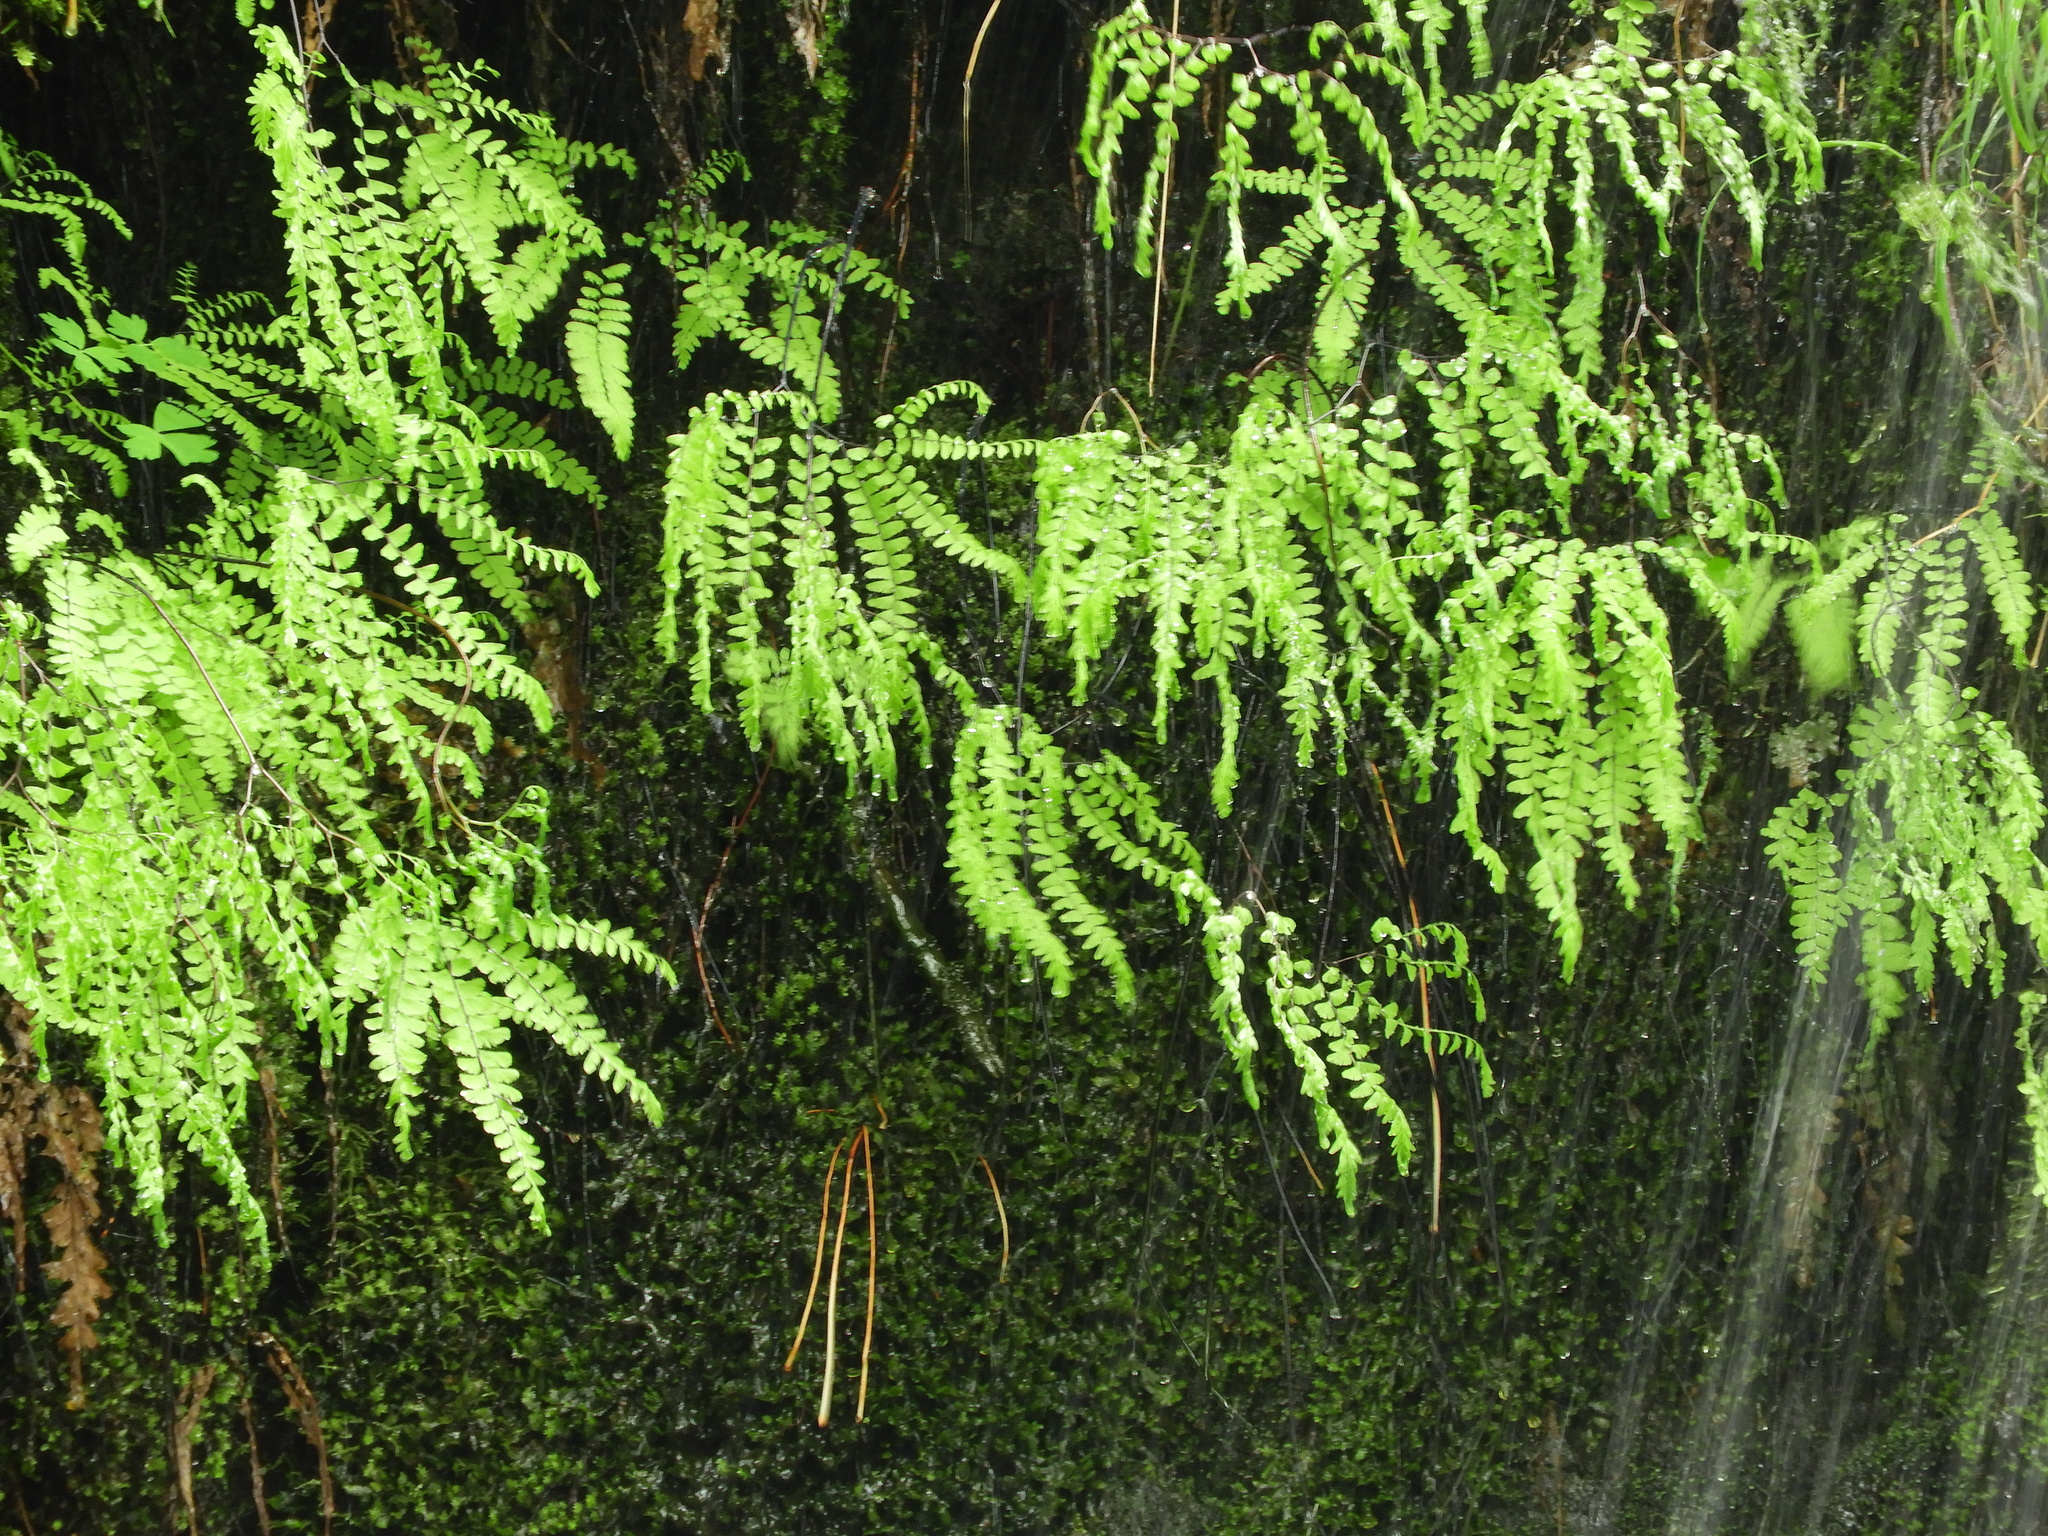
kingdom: Plantae
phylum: Tracheophyta
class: Polypodiopsida
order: Polypodiales
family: Pteridaceae
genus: Adiantum
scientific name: Adiantum aleuticum
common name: Aleutian maidenhair fern
